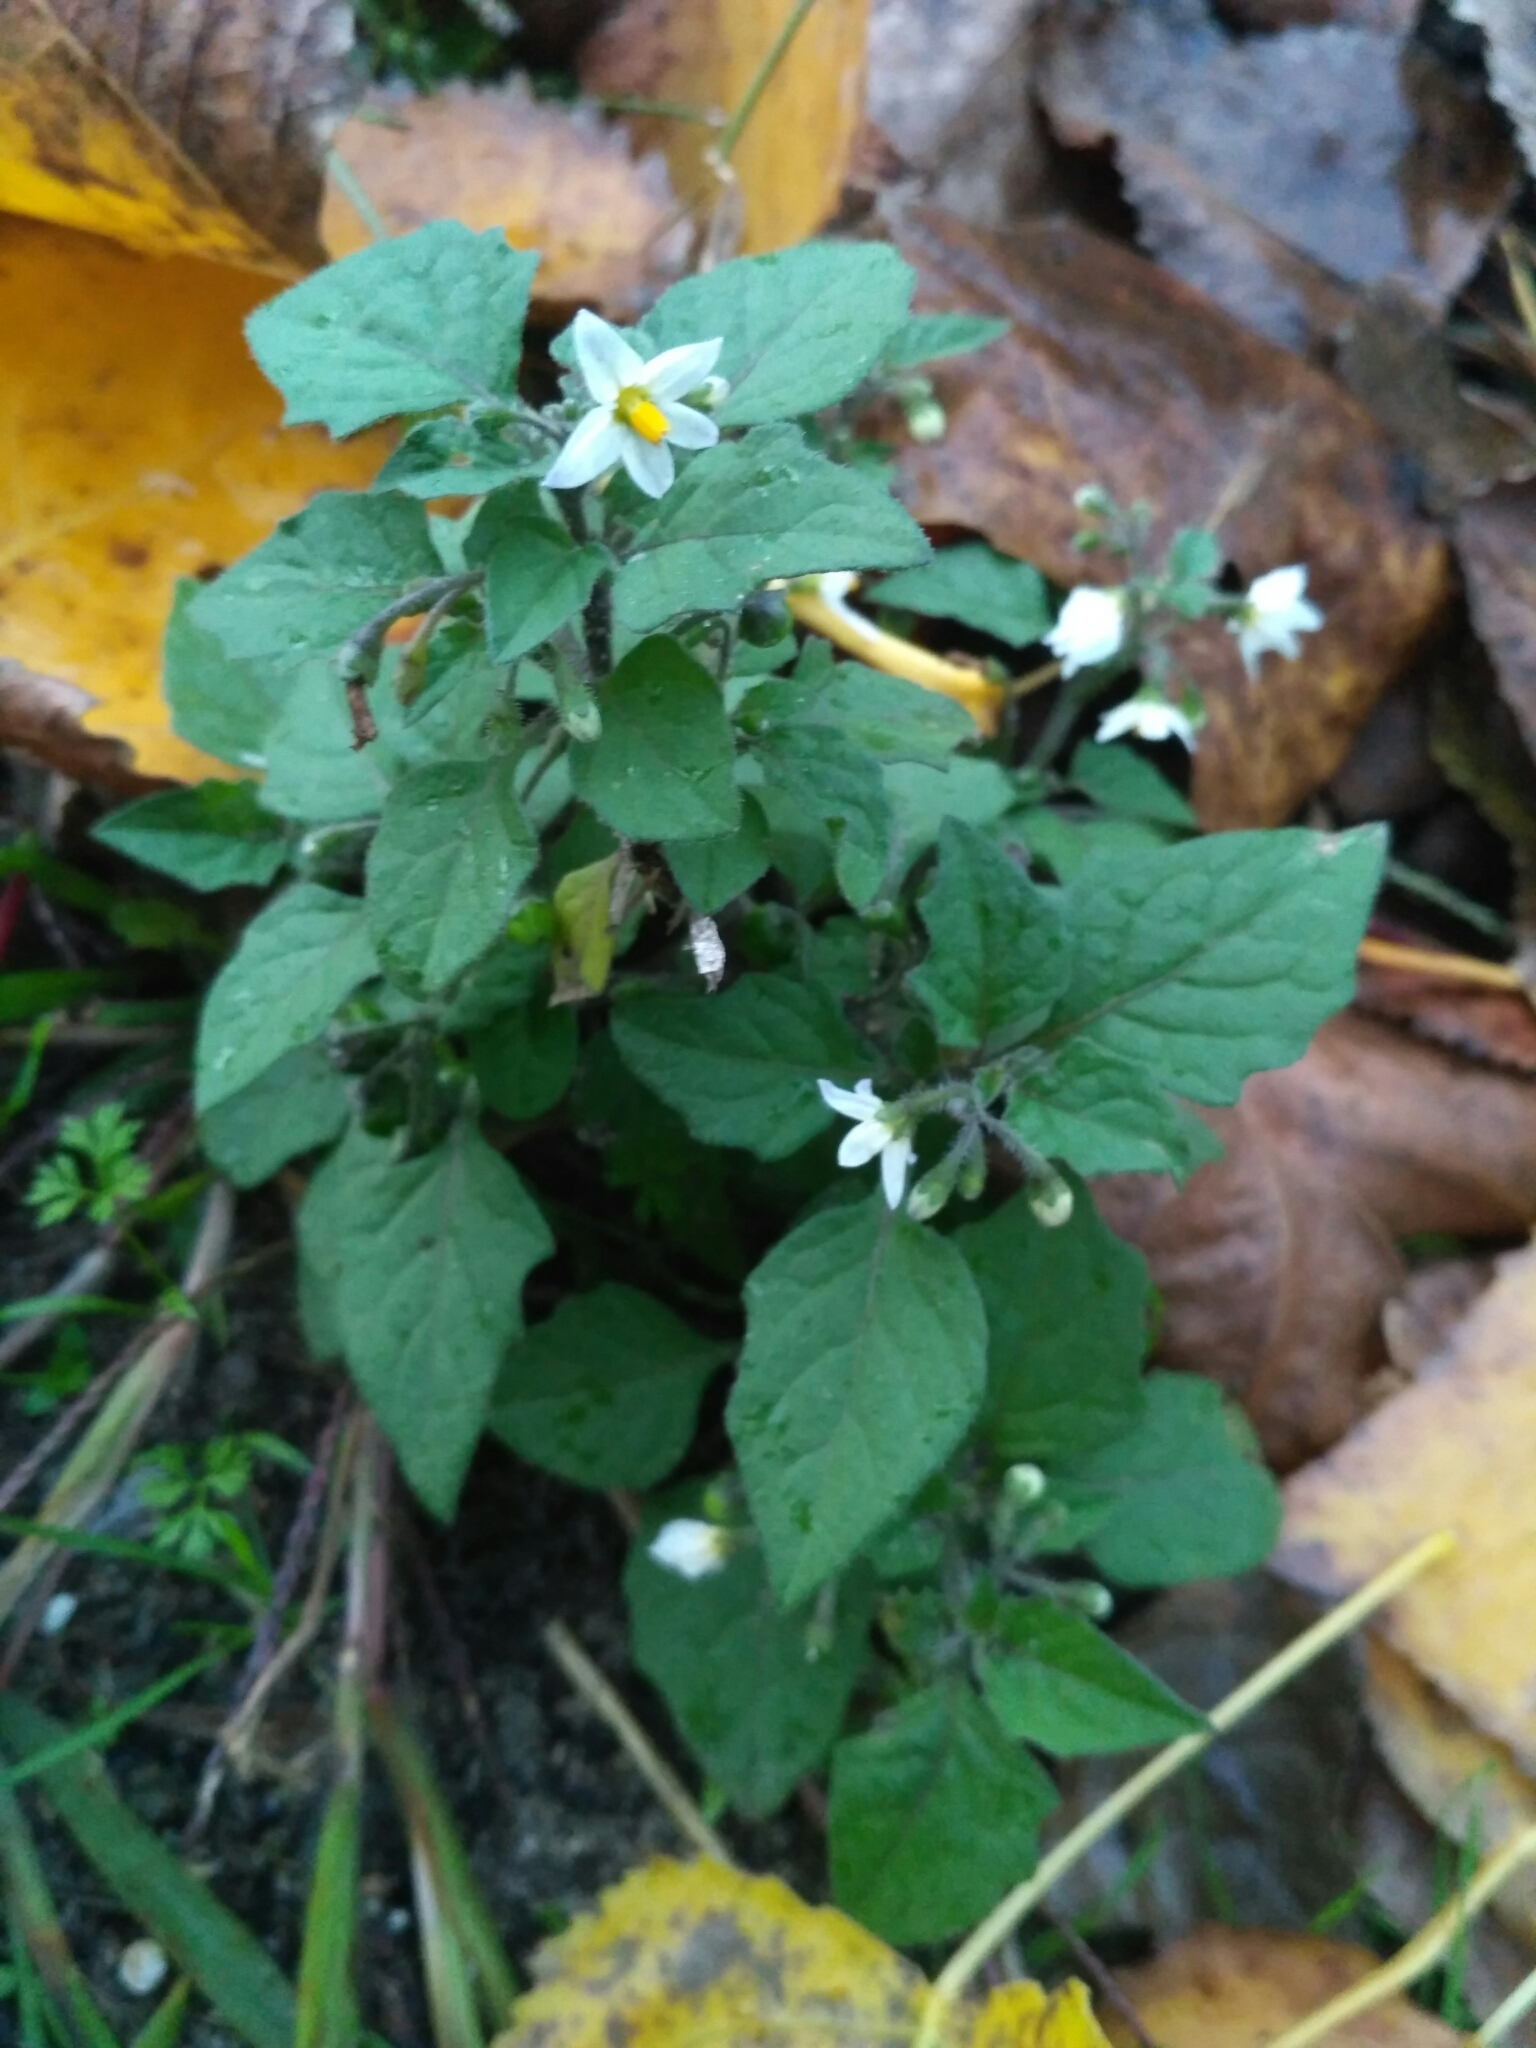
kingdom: Plantae
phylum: Tracheophyta
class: Magnoliopsida
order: Solanales
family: Solanaceae
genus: Solanum
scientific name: Solanum nigrum
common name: Black nightshade
